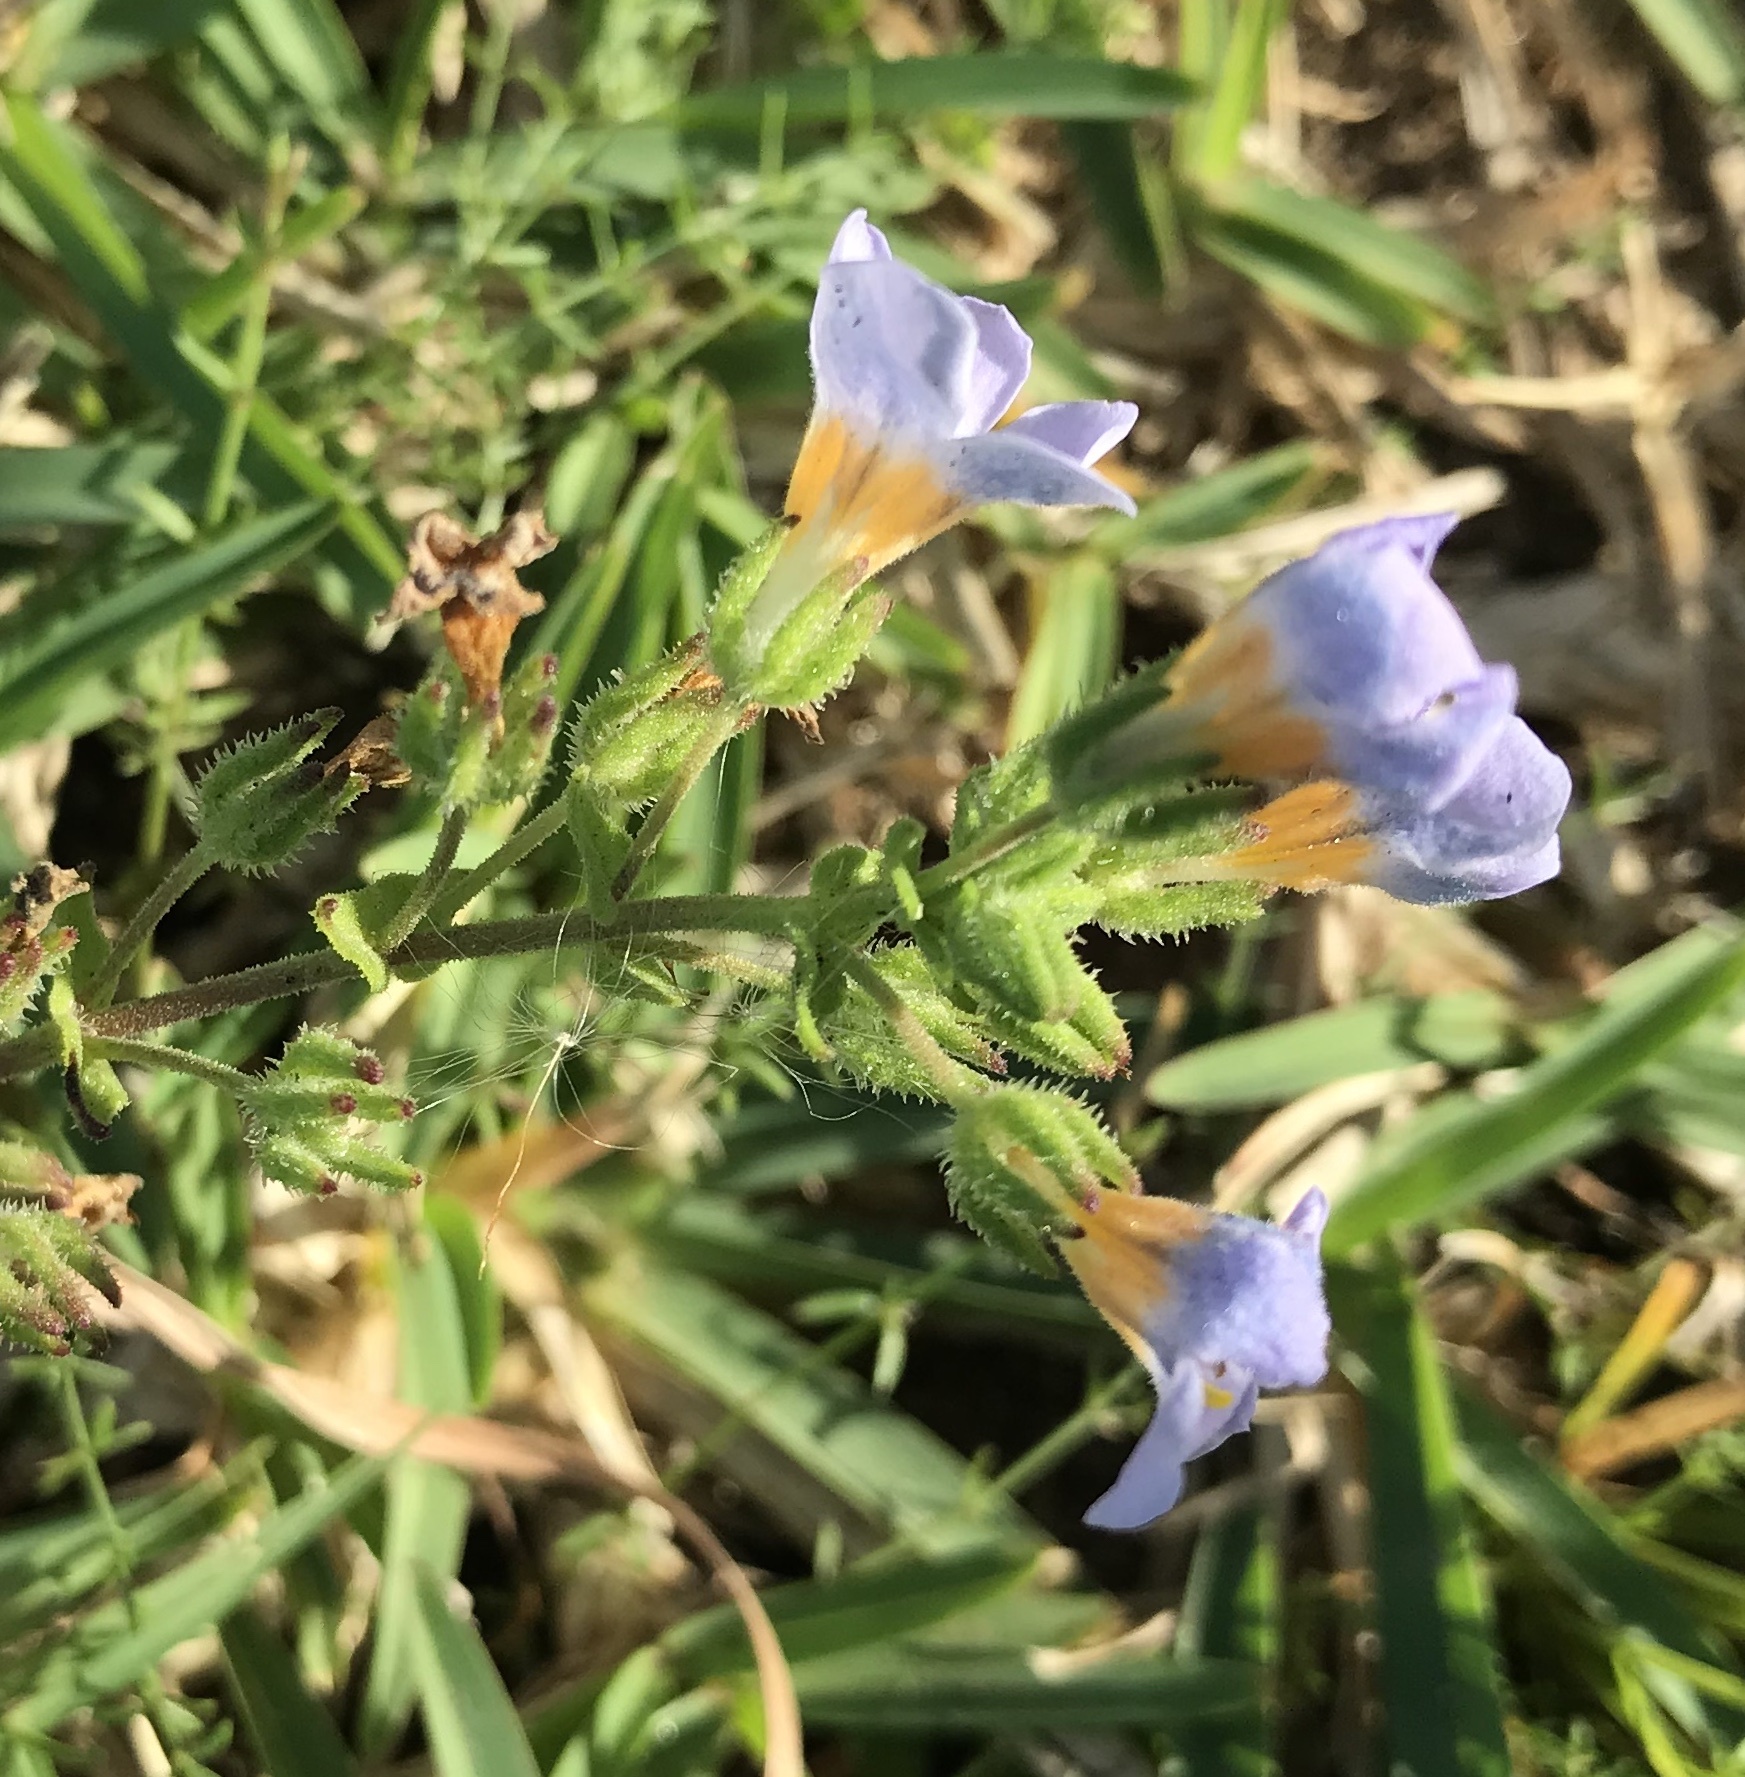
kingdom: Plantae
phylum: Tracheophyta
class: Magnoliopsida
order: Lamiales
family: Scrophulariaceae
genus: Chaenostoma
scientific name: Chaenostoma roseoflavum
